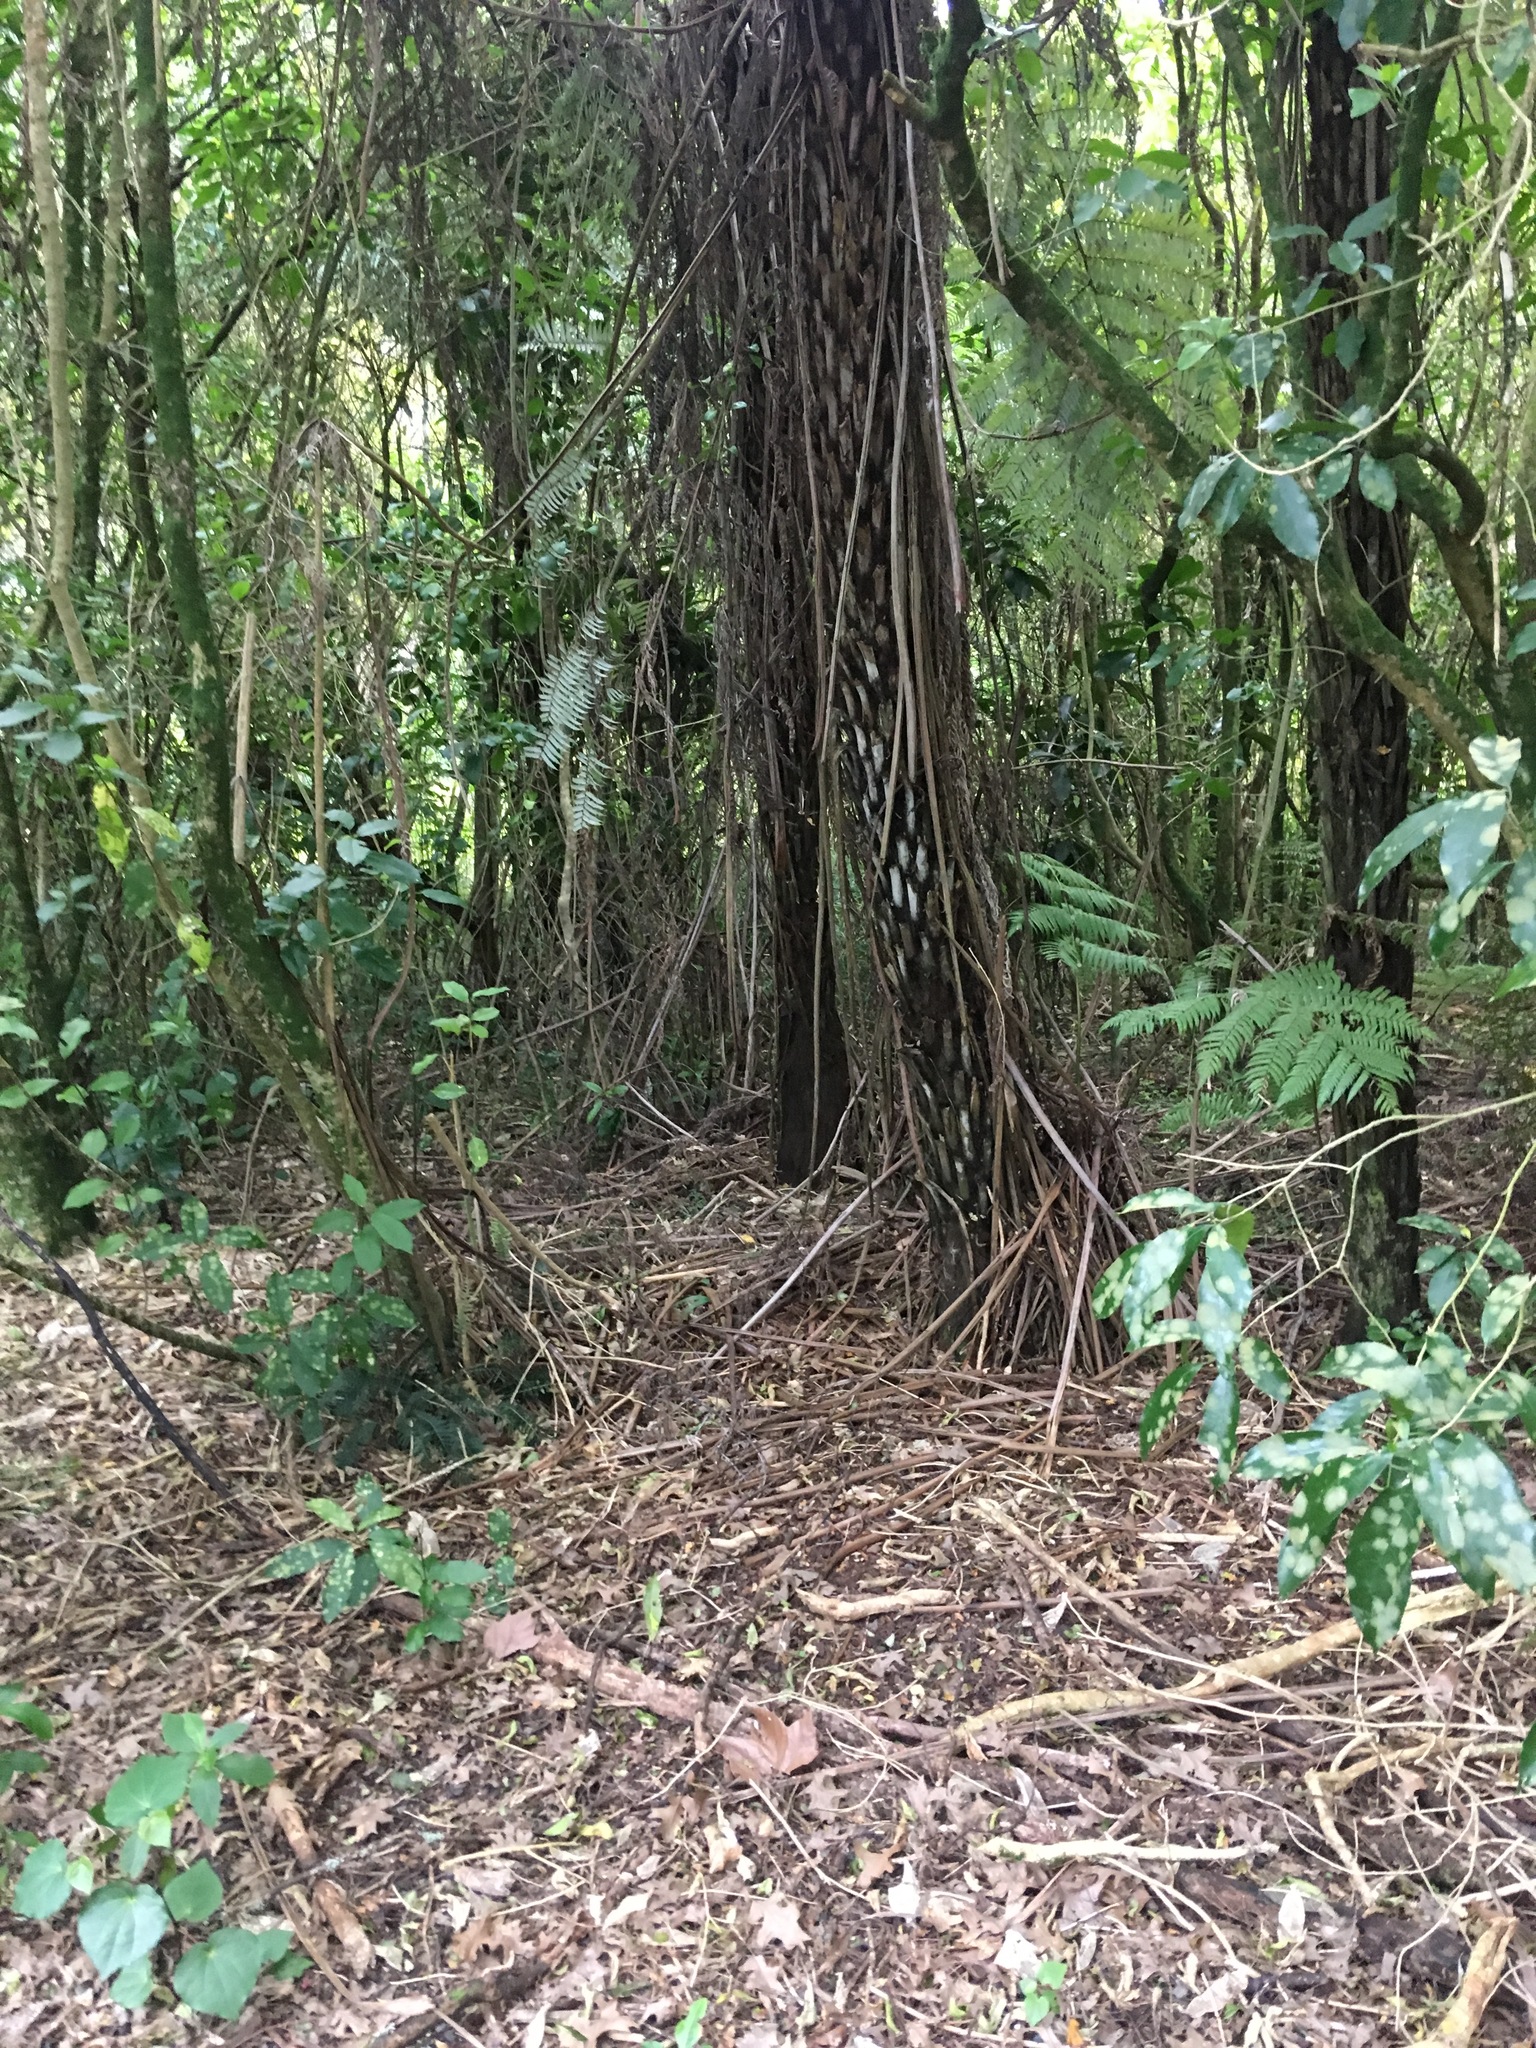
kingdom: Plantae
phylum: Tracheophyta
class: Polypodiopsida
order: Cyatheales
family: Cyatheaceae
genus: Alsophila
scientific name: Alsophila dealbata
